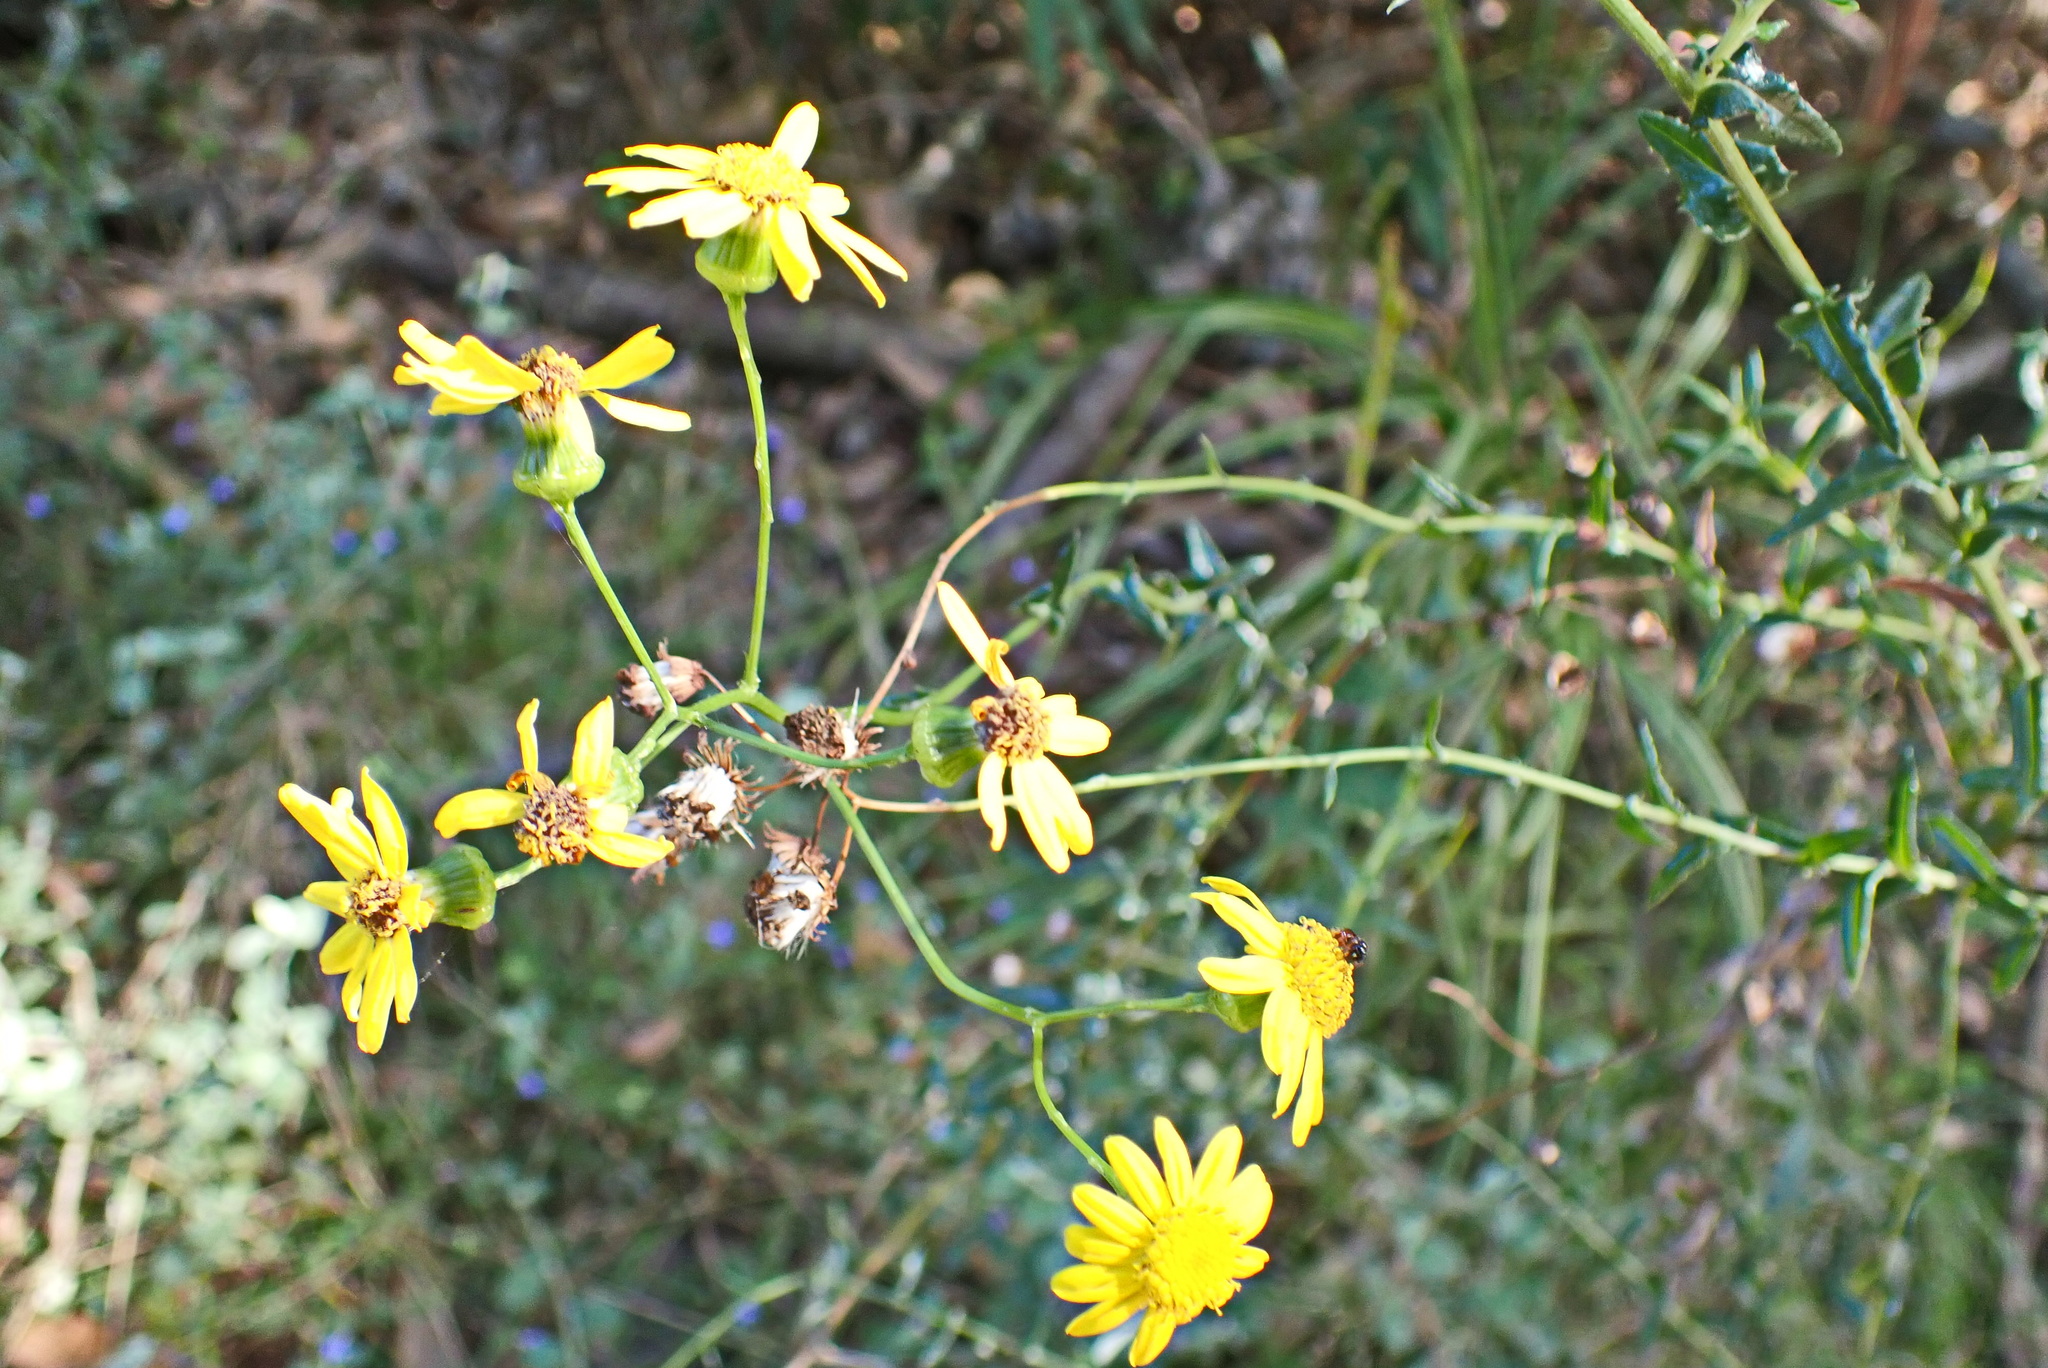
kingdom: Plantae
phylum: Tracheophyta
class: Magnoliopsida
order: Asterales
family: Asteraceae
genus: Senecio
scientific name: Senecio ilicifolius
